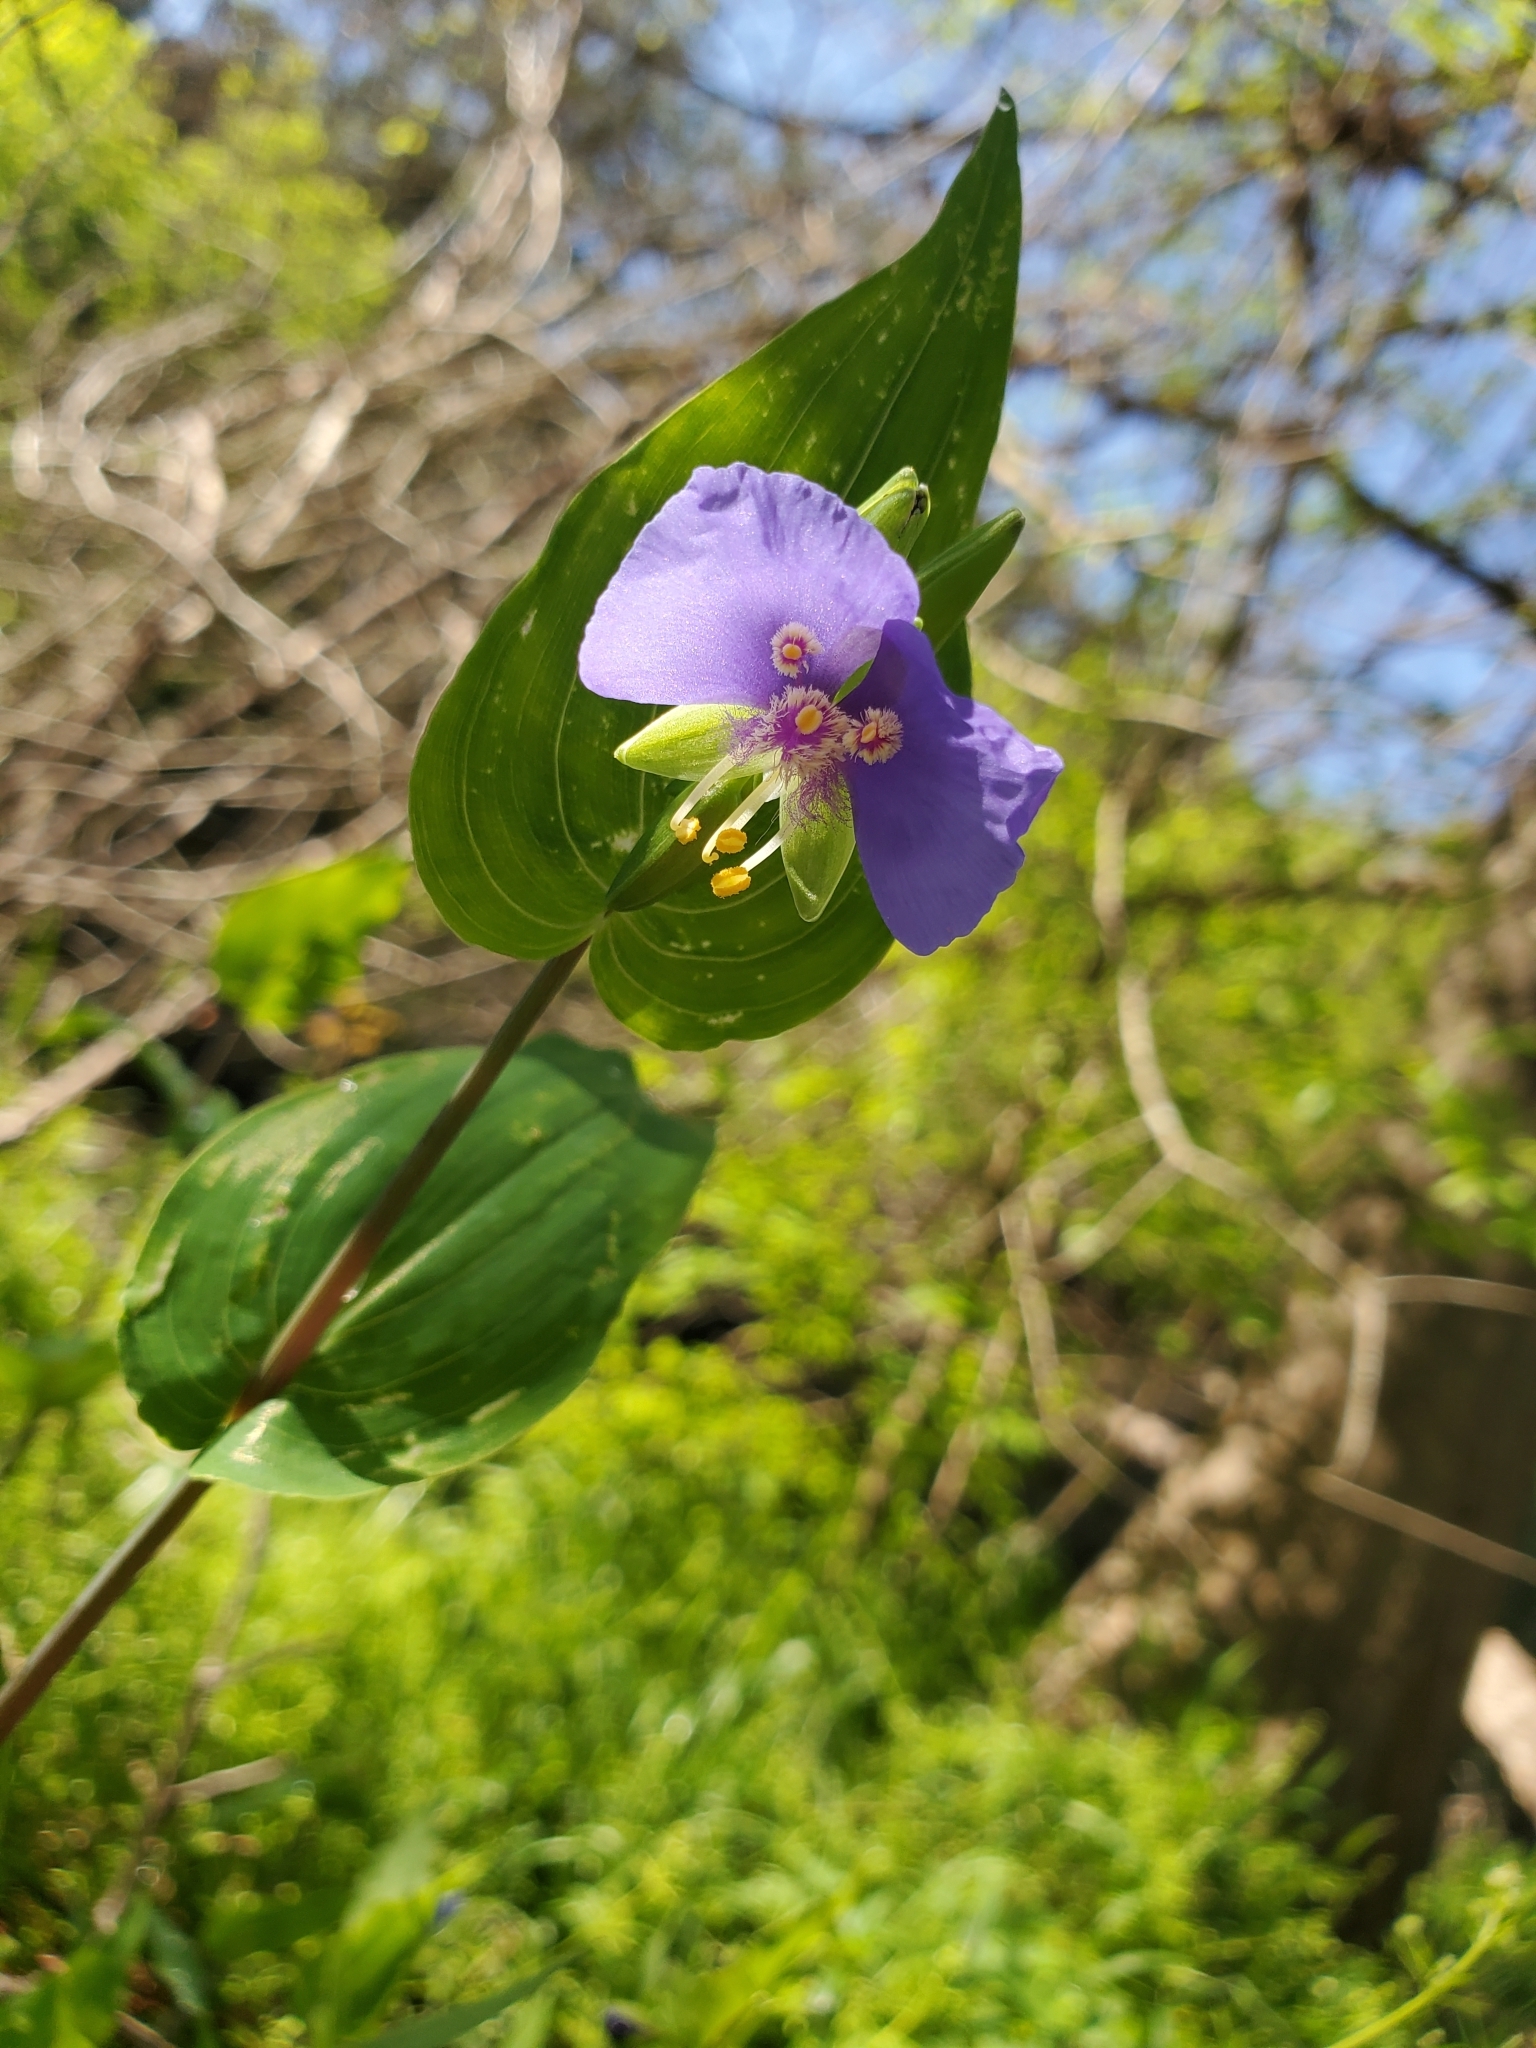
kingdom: Plantae
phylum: Tracheophyta
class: Liliopsida
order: Commelinales
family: Commelinaceae
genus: Tinantia
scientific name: Tinantia anomala
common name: False dayflower
